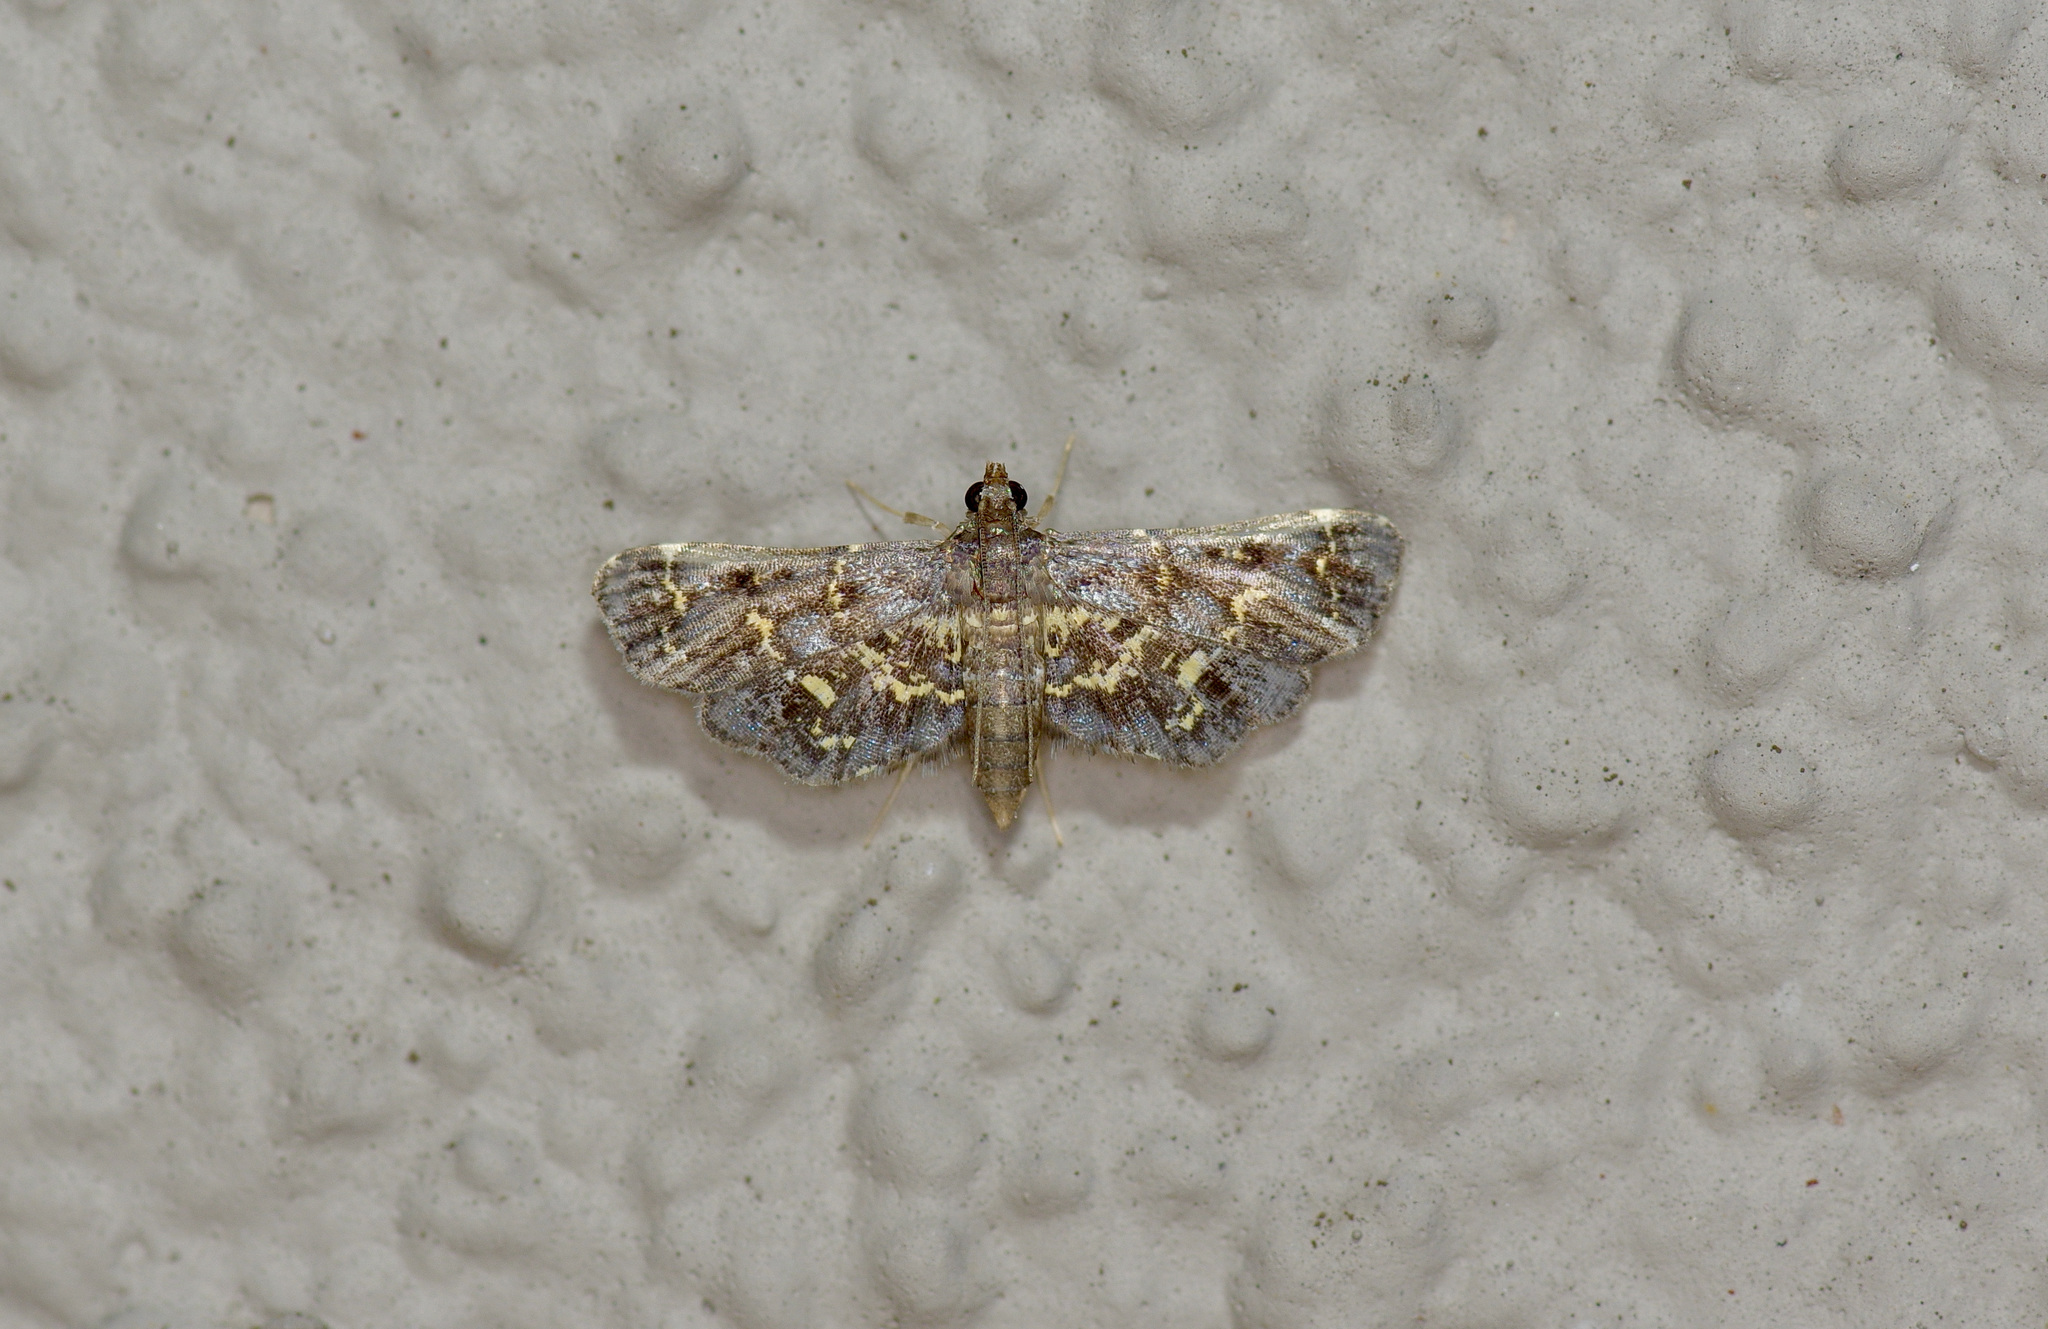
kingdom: Animalia
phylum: Arthropoda
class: Insecta
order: Lepidoptera
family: Crambidae
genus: Eurrhyparodes
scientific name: Eurrhyparodes lygdamis
